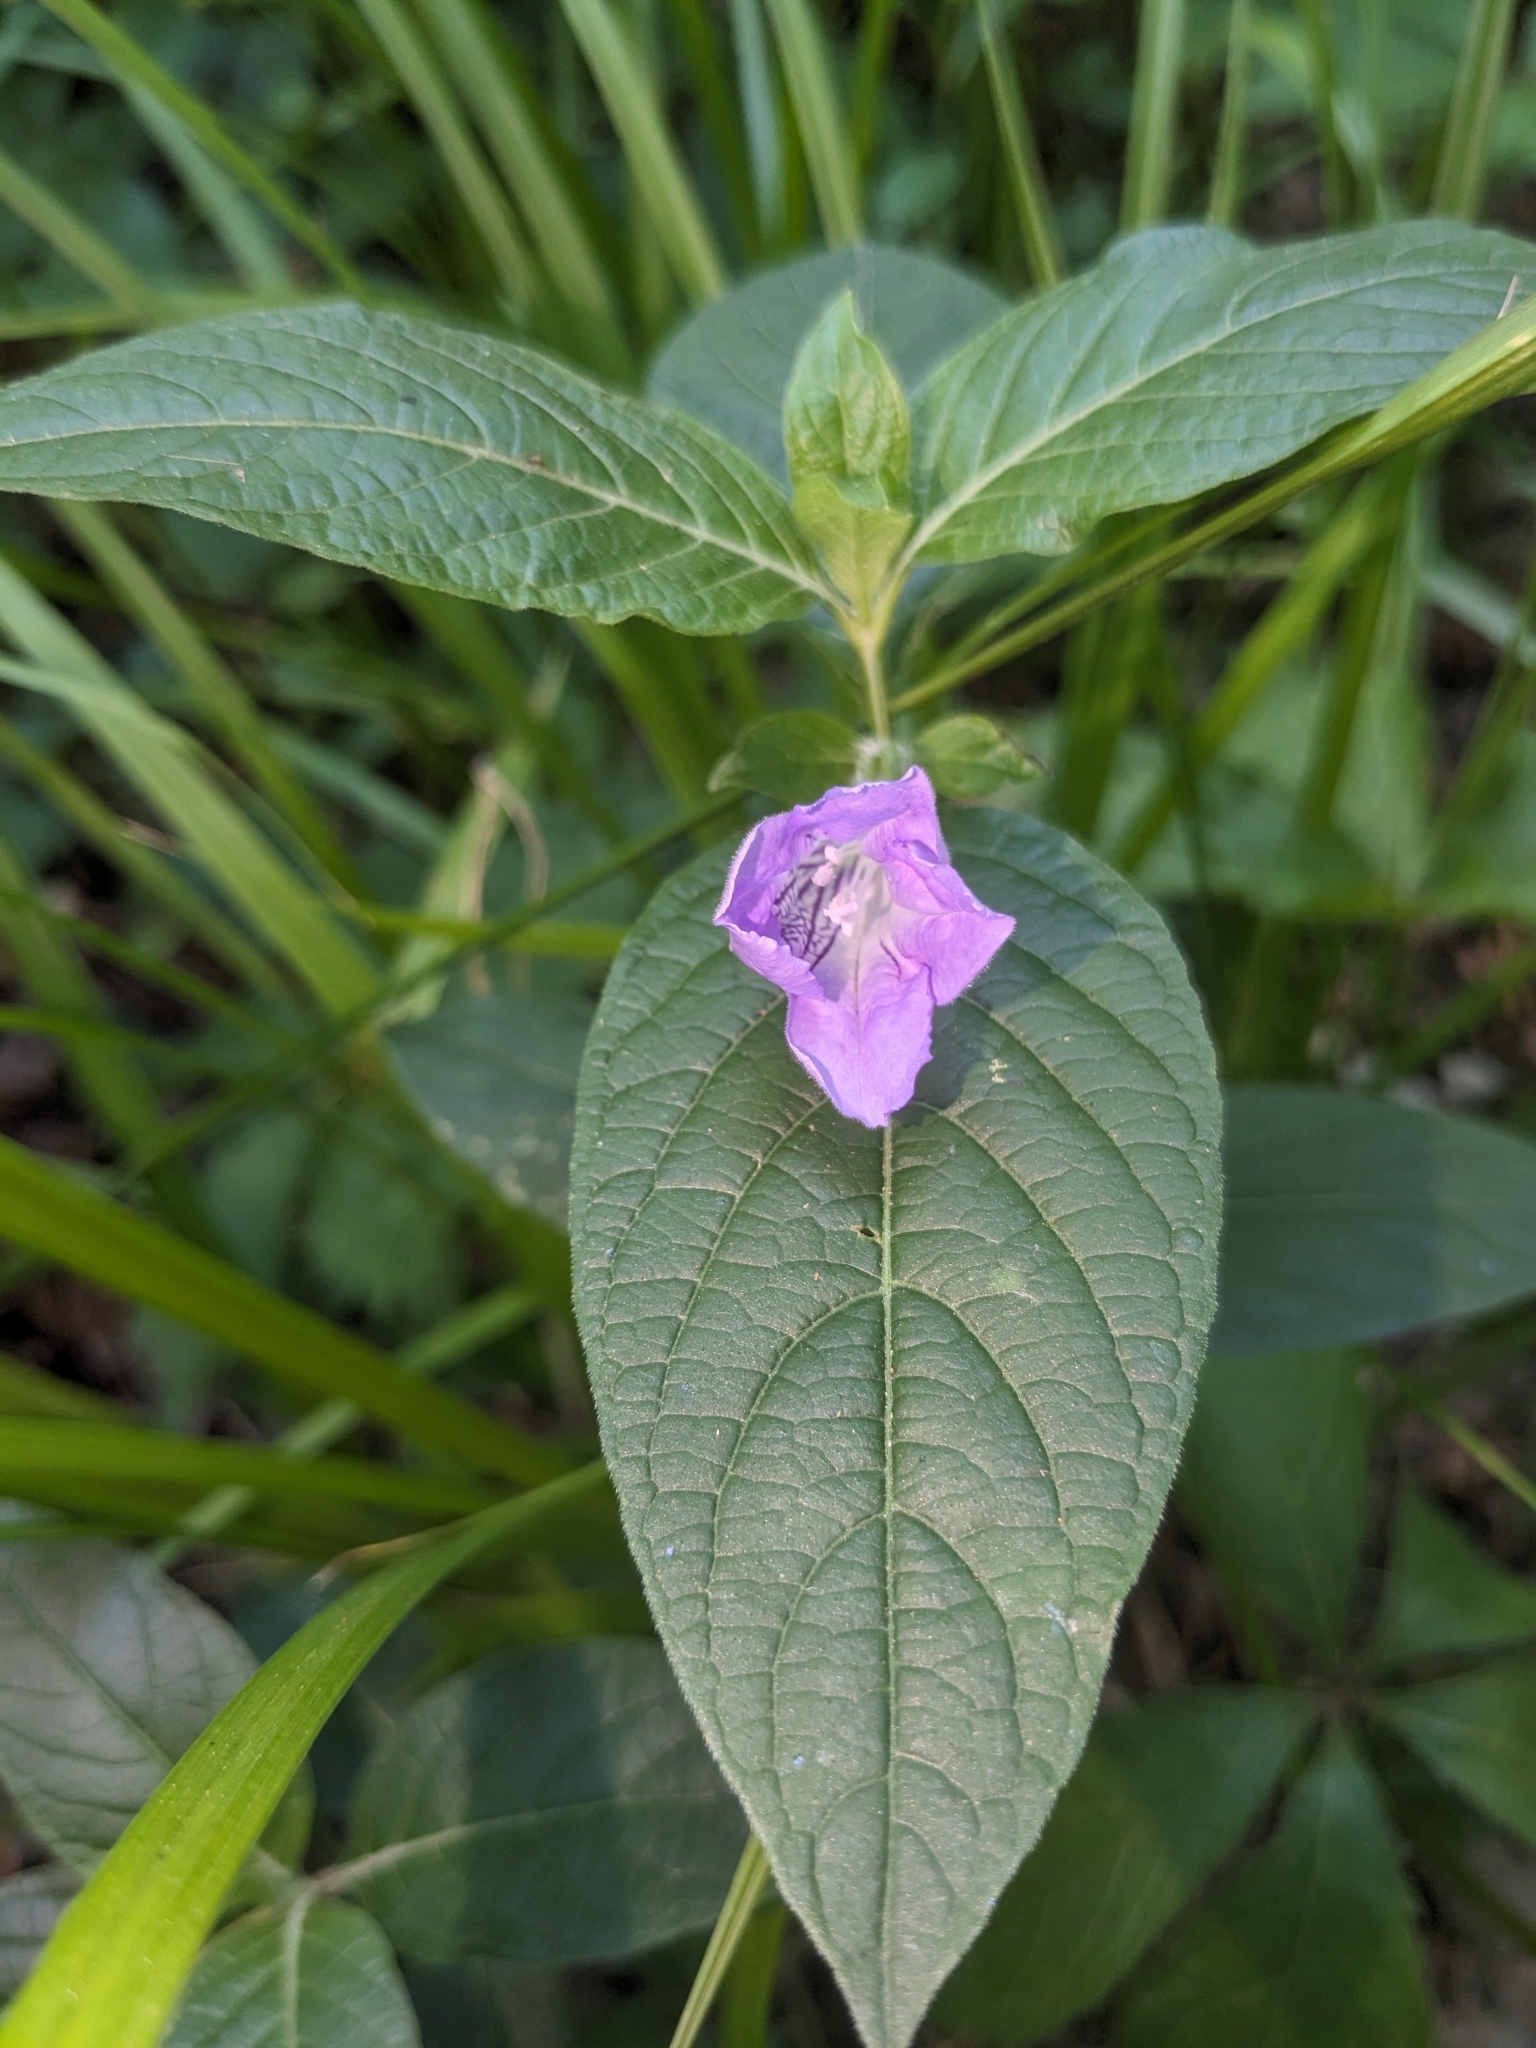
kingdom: Plantae
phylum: Tracheophyta
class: Magnoliopsida
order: Lamiales
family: Acanthaceae
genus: Ruellia
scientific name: Ruellia strepens
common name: Limestone wild petunia
